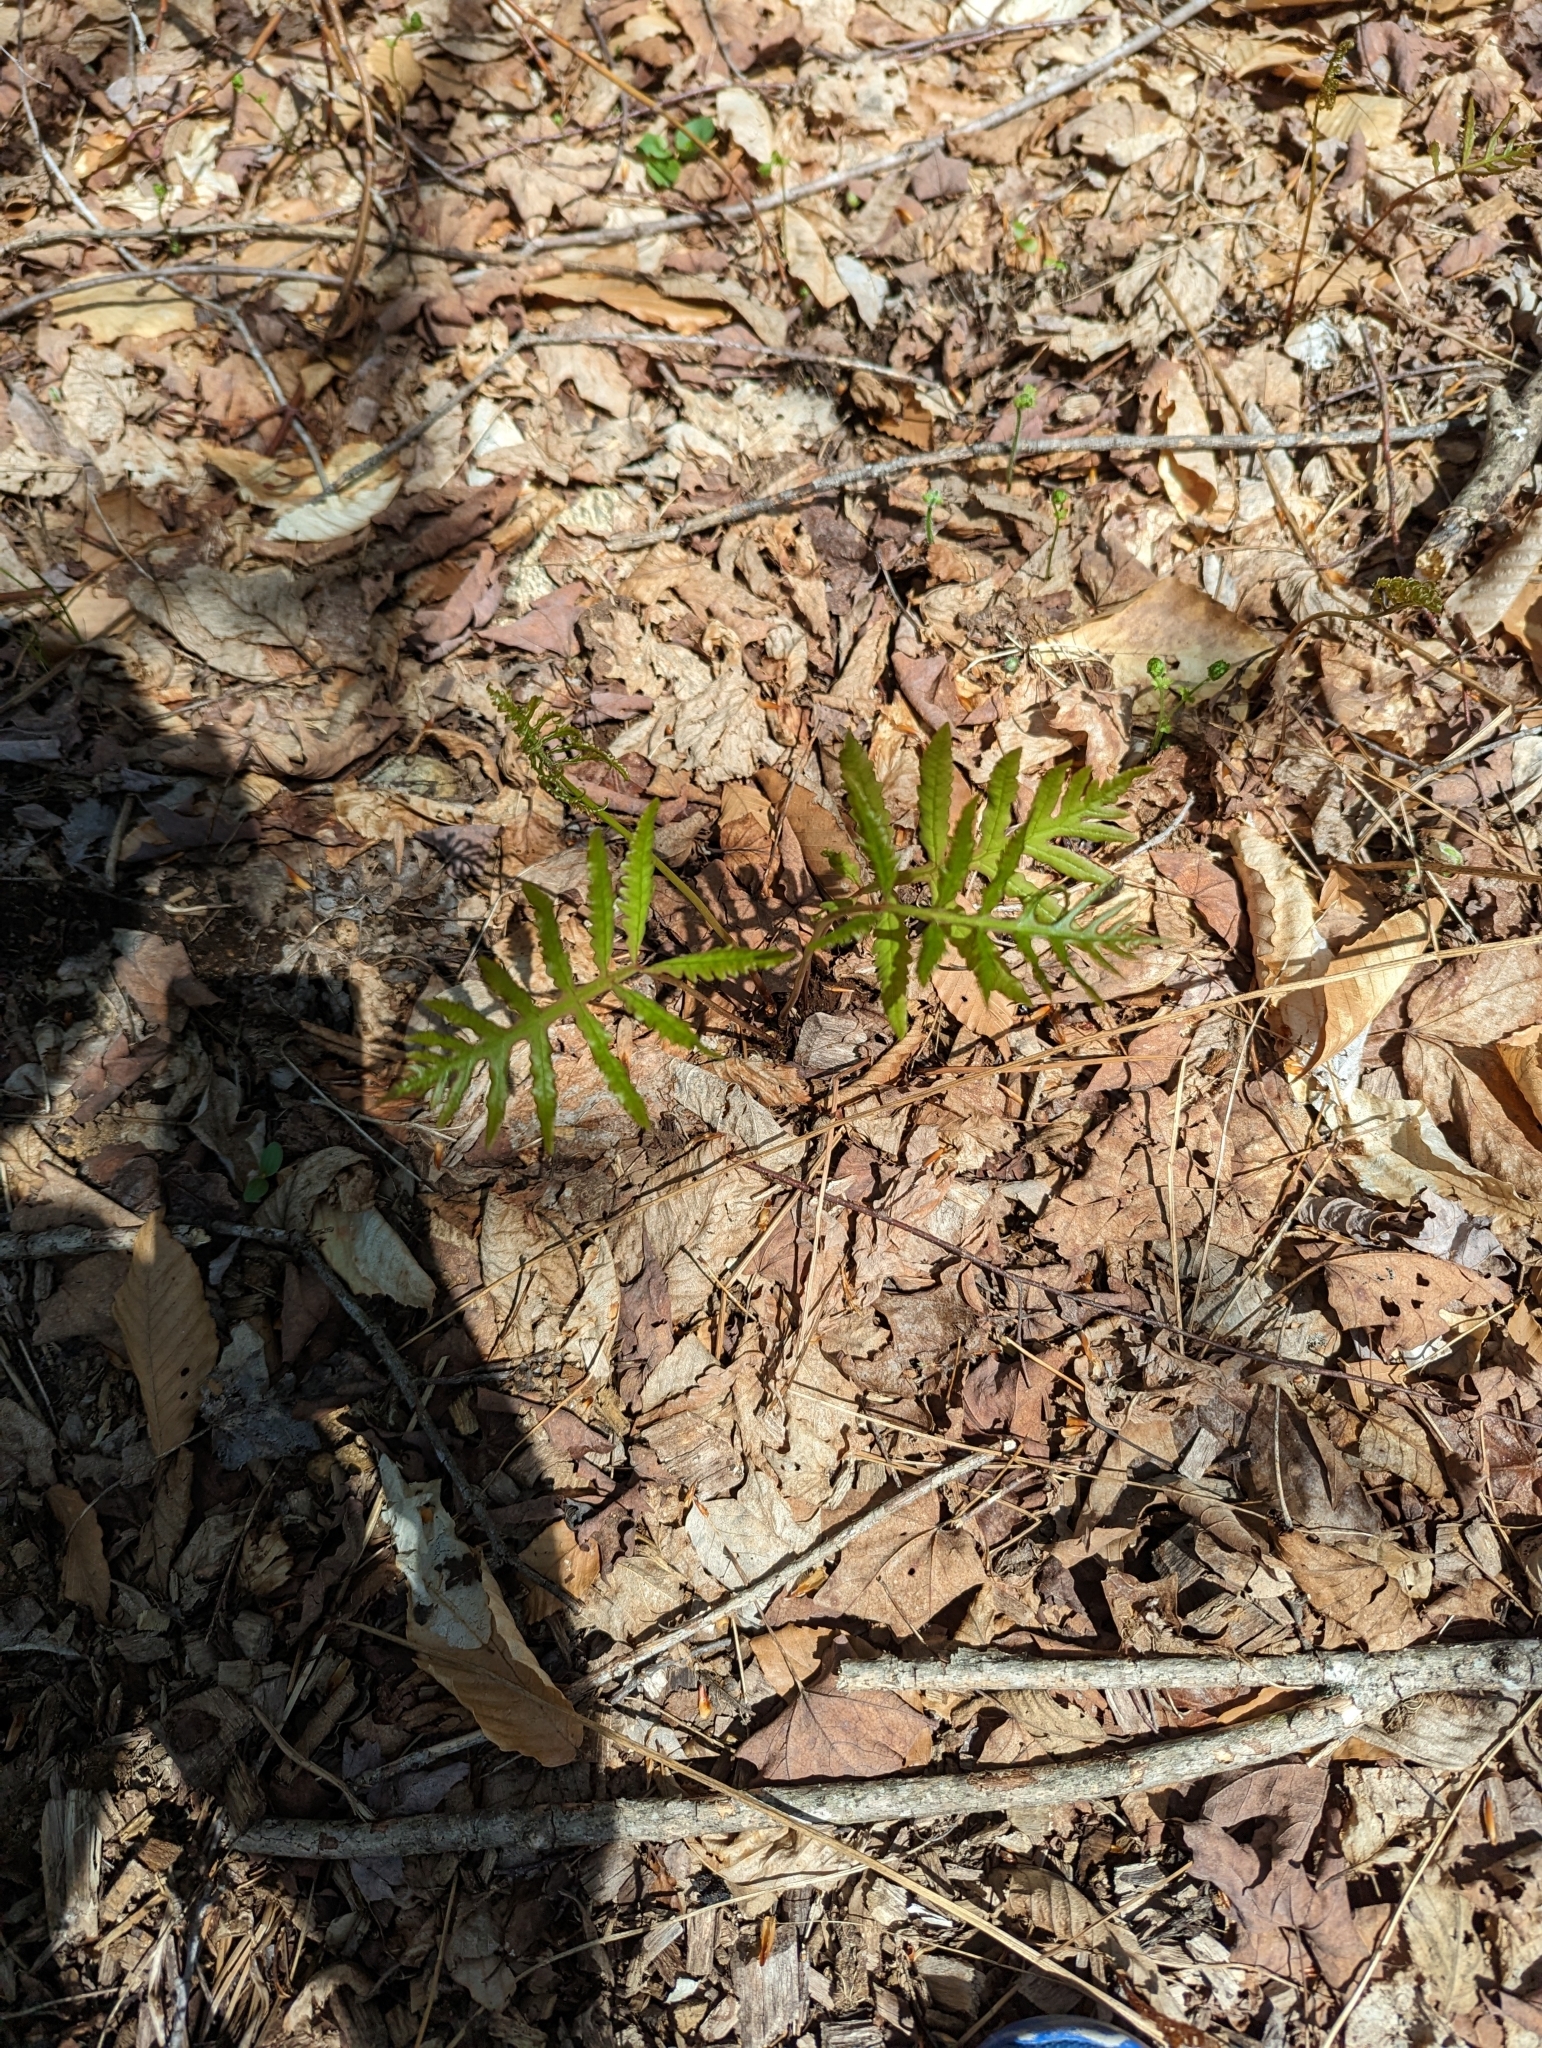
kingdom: Plantae
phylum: Tracheophyta
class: Polypodiopsida
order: Polypodiales
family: Onocleaceae
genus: Onoclea
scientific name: Onoclea sensibilis
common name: Sensitive fern
